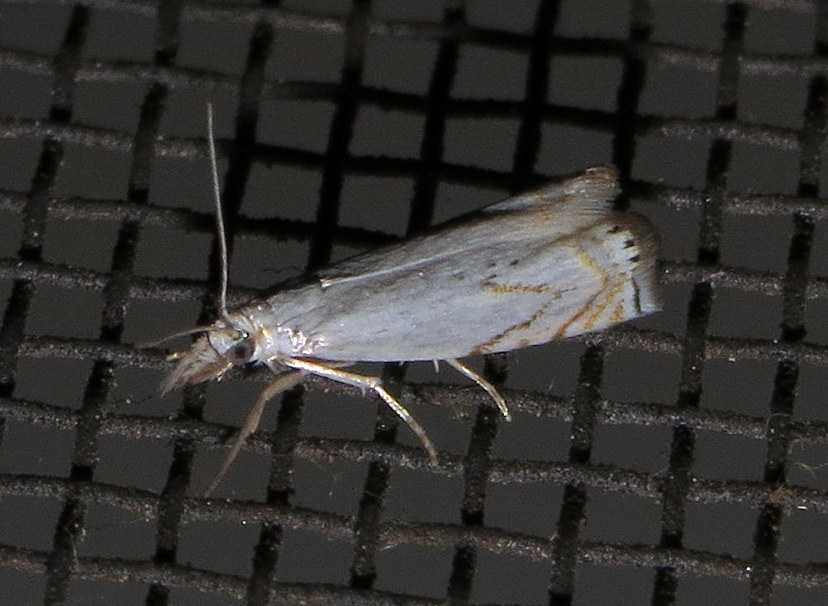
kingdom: Animalia
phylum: Arthropoda
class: Insecta
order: Lepidoptera
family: Crambidae
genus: Crambus
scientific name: Crambus albellus
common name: Small white grass-veneer
